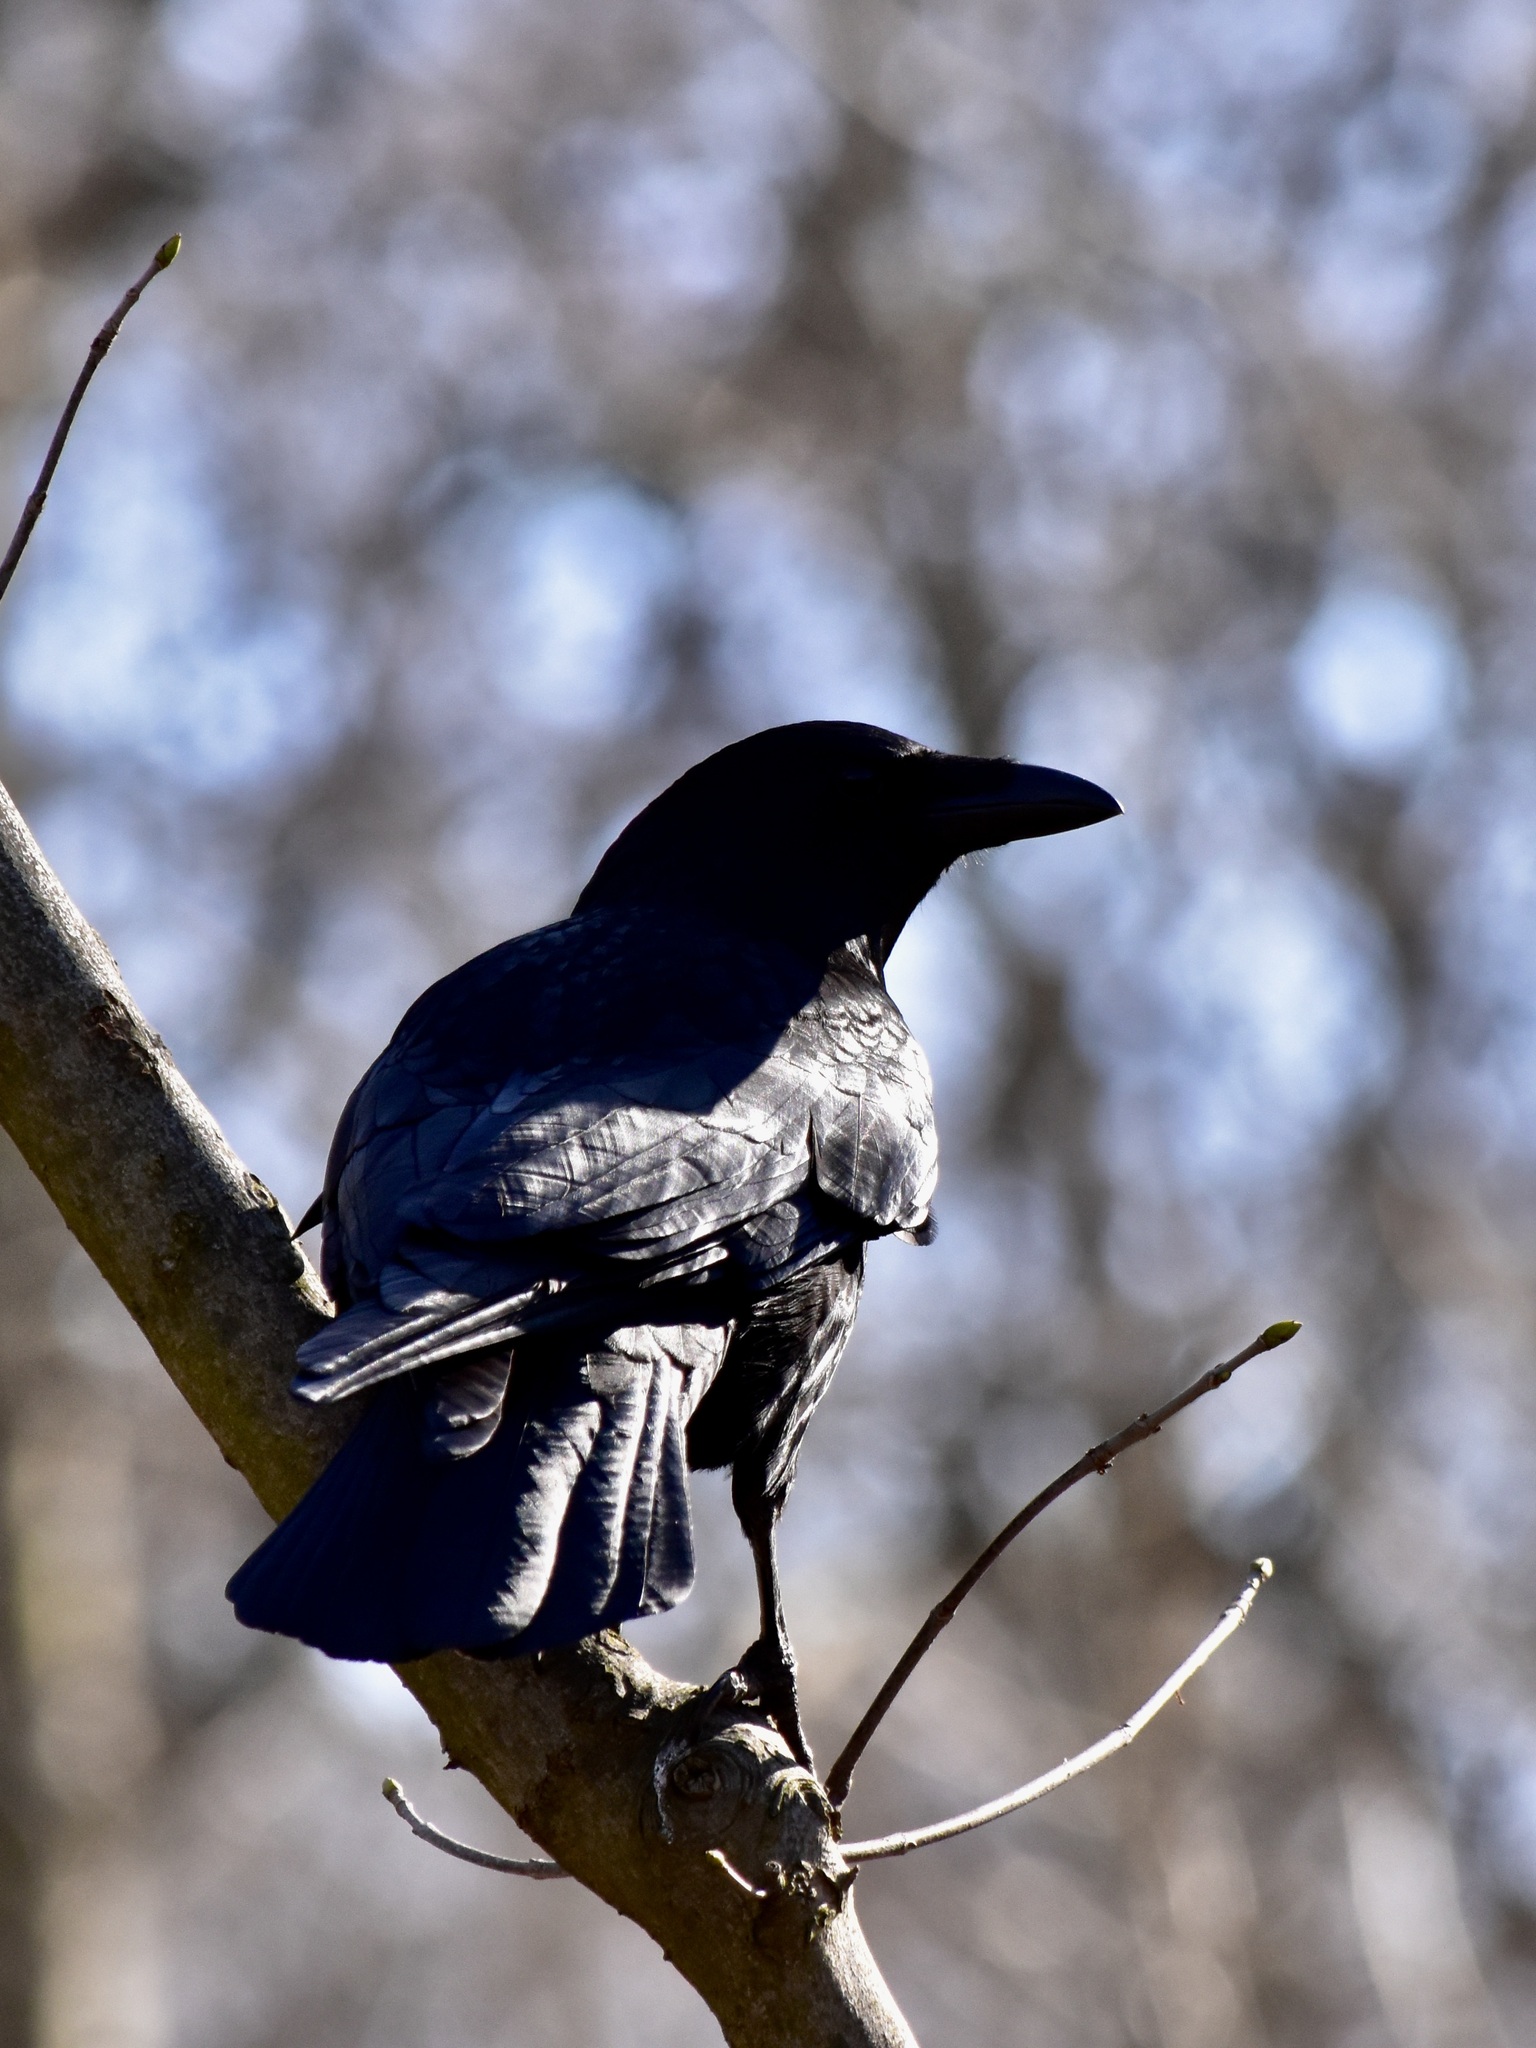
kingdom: Animalia
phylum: Chordata
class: Aves
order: Passeriformes
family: Corvidae
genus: Corvus
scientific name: Corvus corone
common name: Carrion crow
